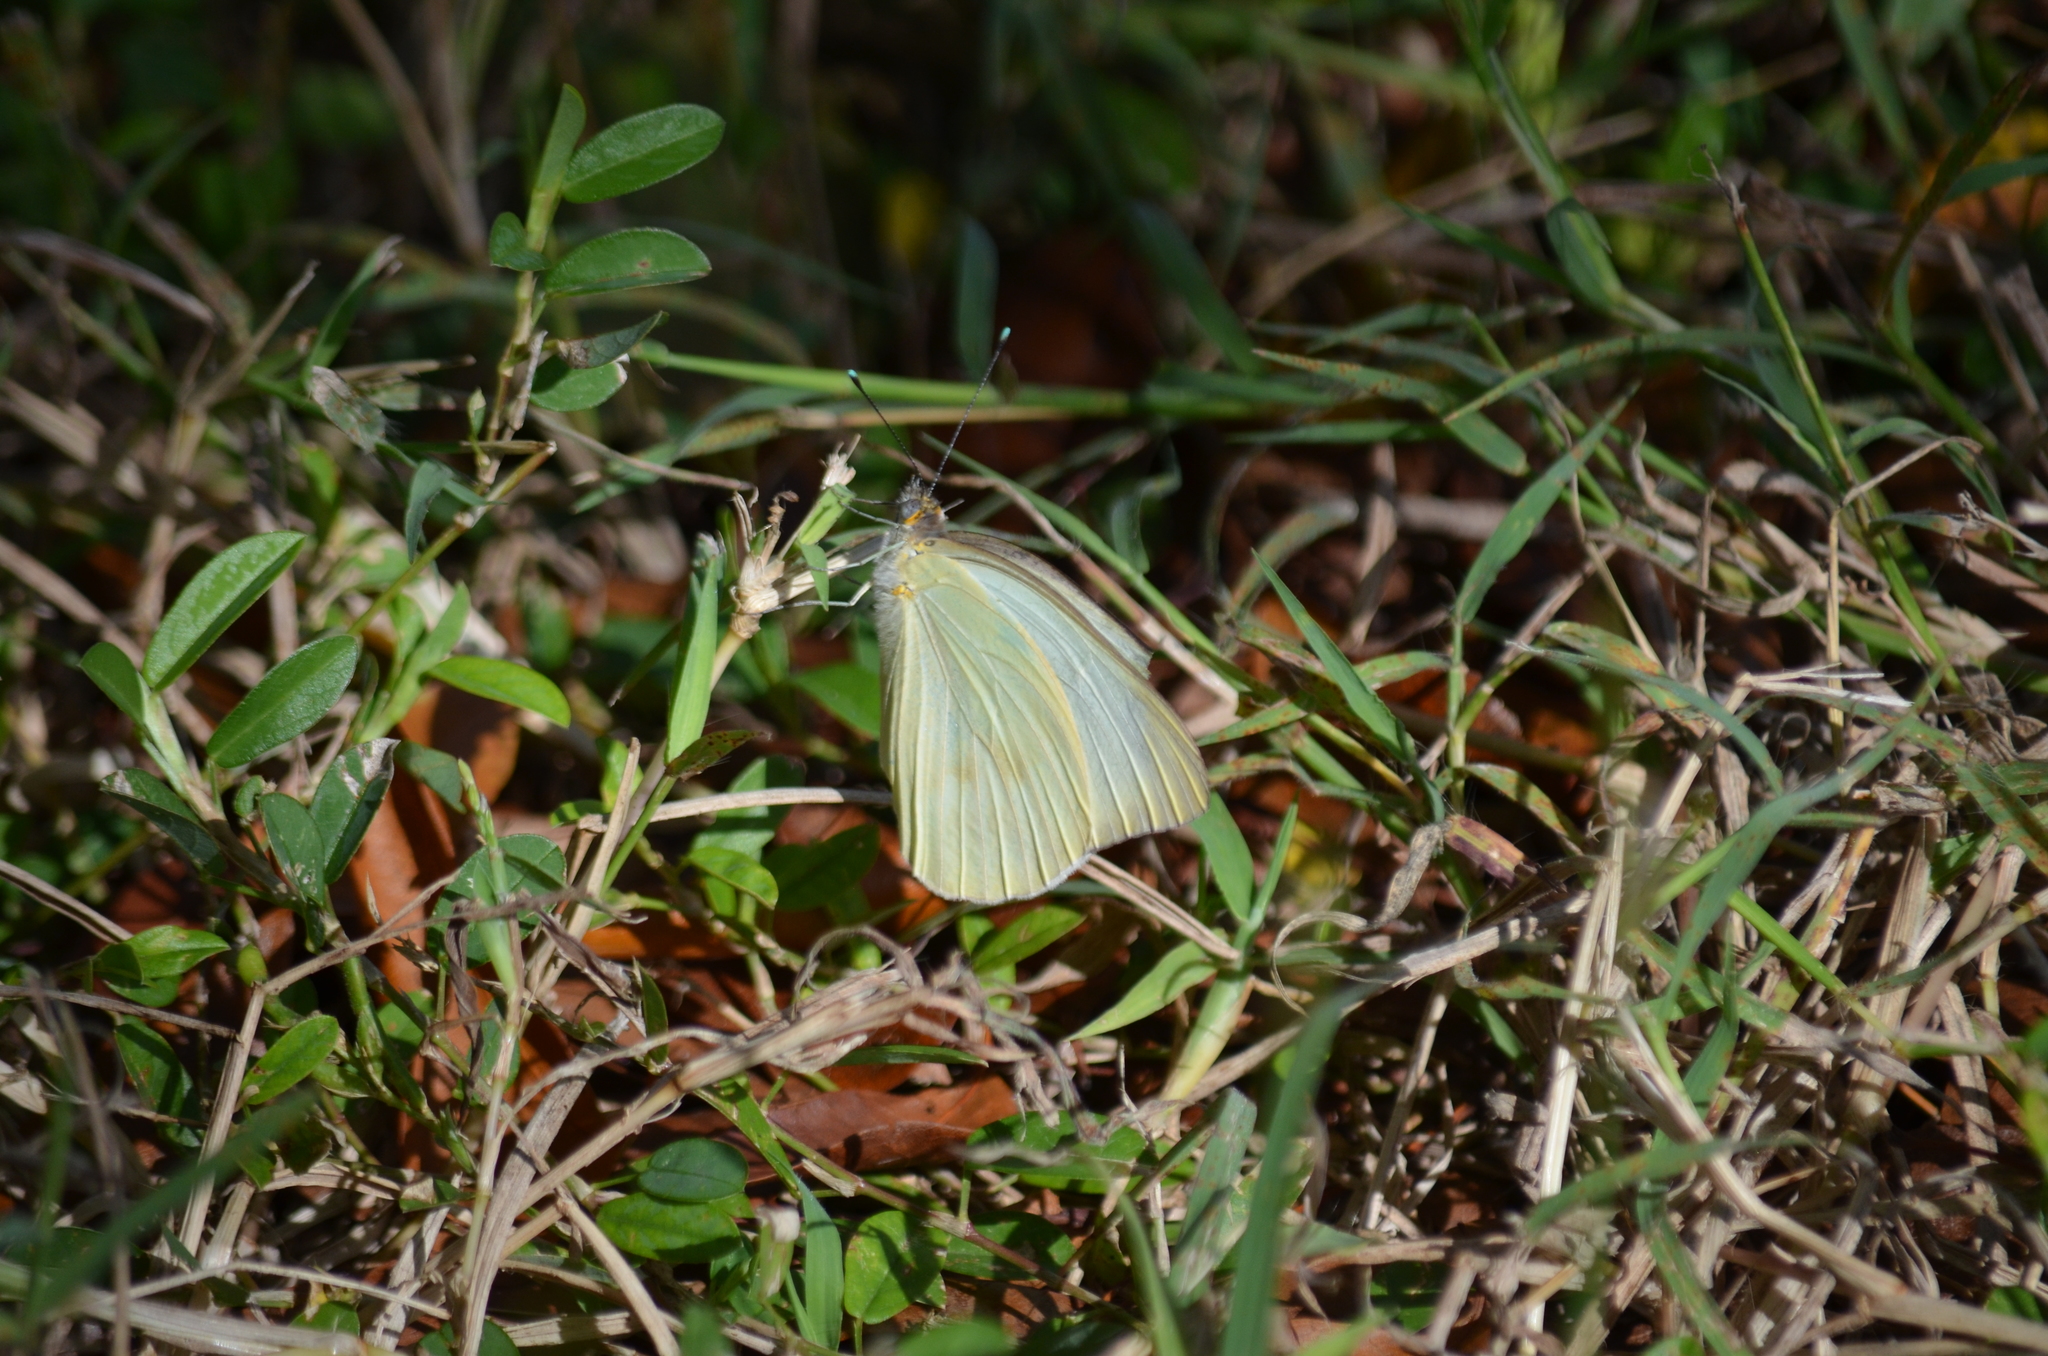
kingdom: Animalia
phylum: Arthropoda
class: Insecta
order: Lepidoptera
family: Pieridae
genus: Ascia
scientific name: Ascia monuste
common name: Great southern white
